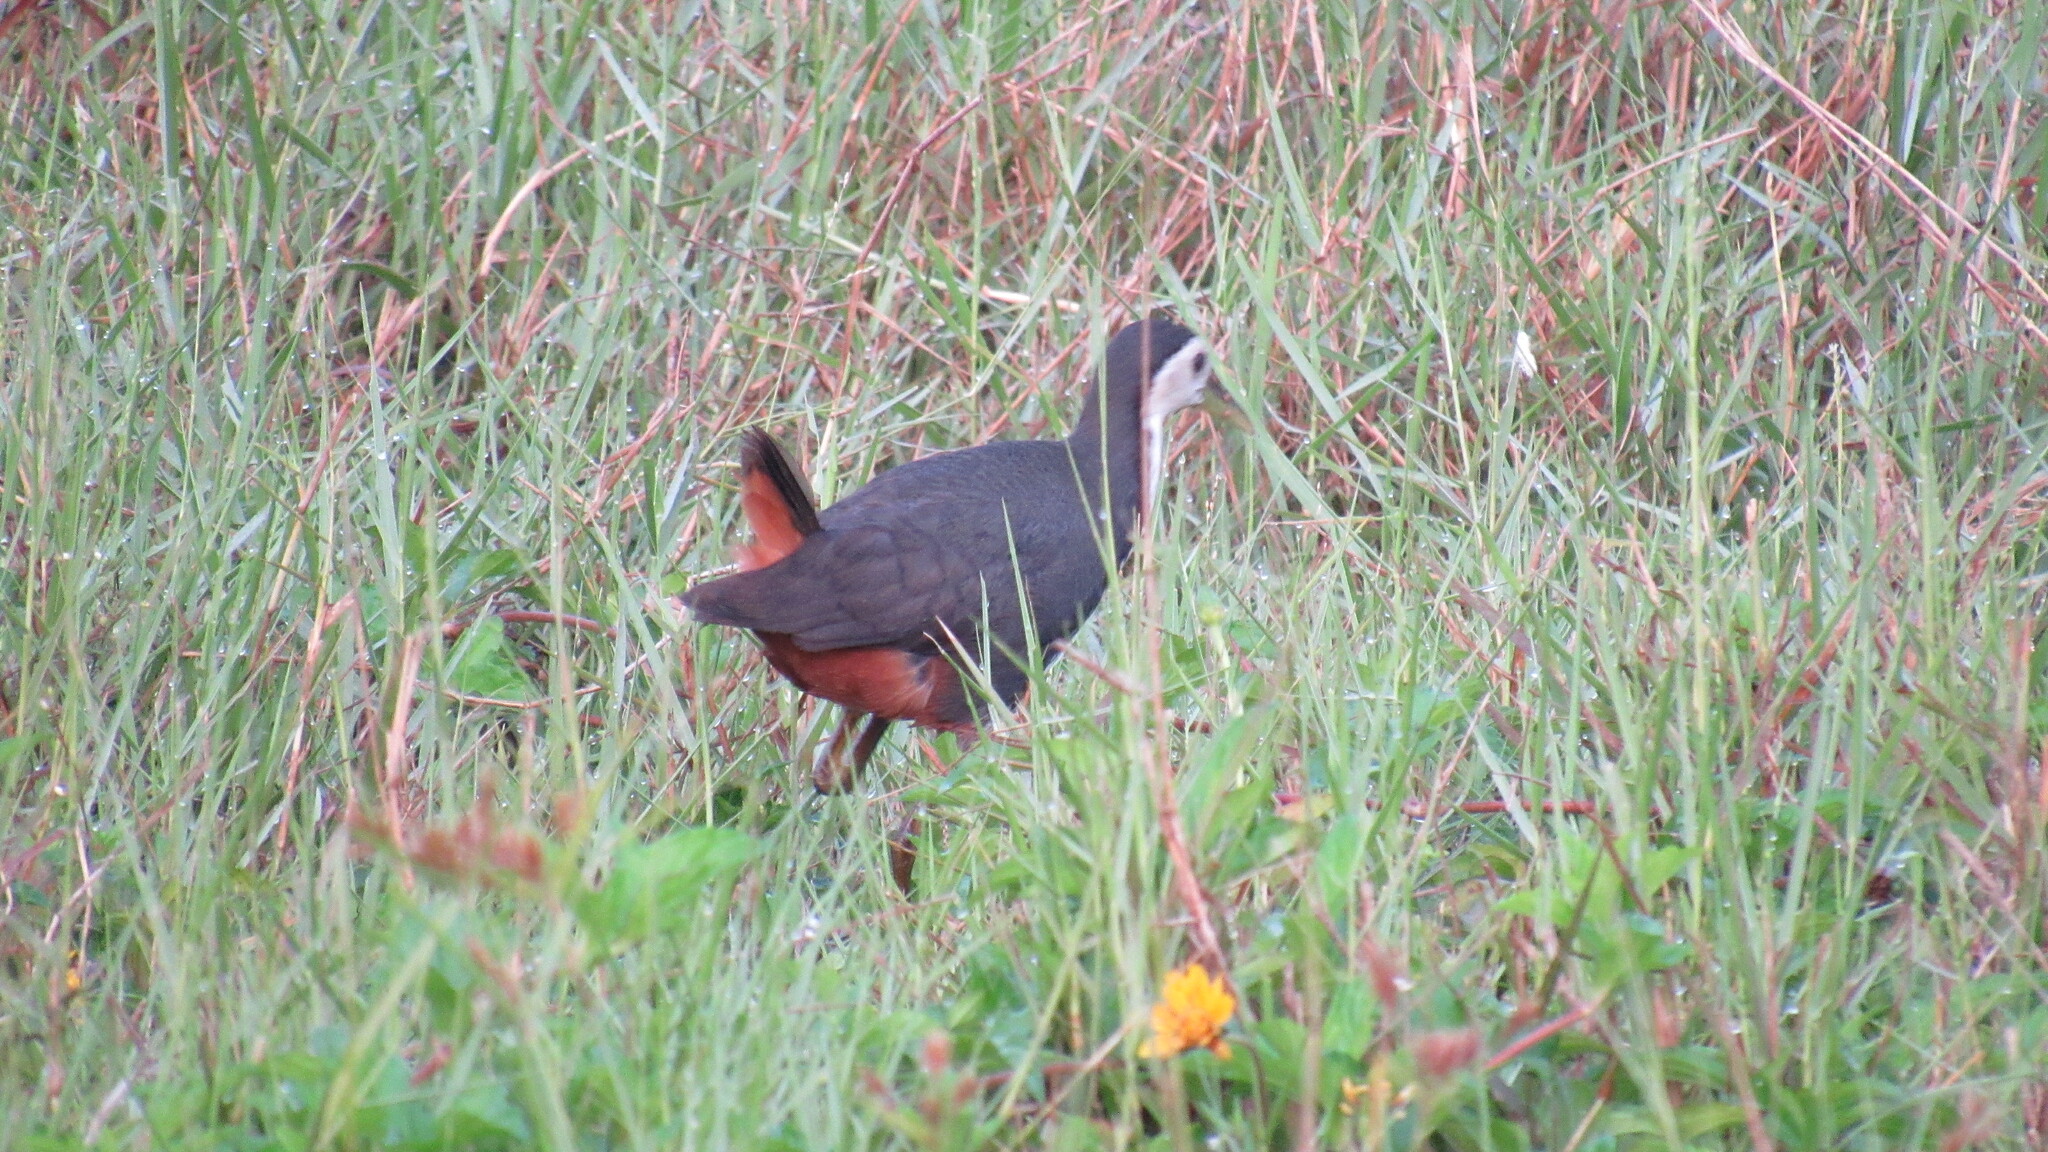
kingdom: Animalia
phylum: Chordata
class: Aves
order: Gruiformes
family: Rallidae
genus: Amaurornis
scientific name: Amaurornis phoenicurus
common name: White-breasted waterhen
